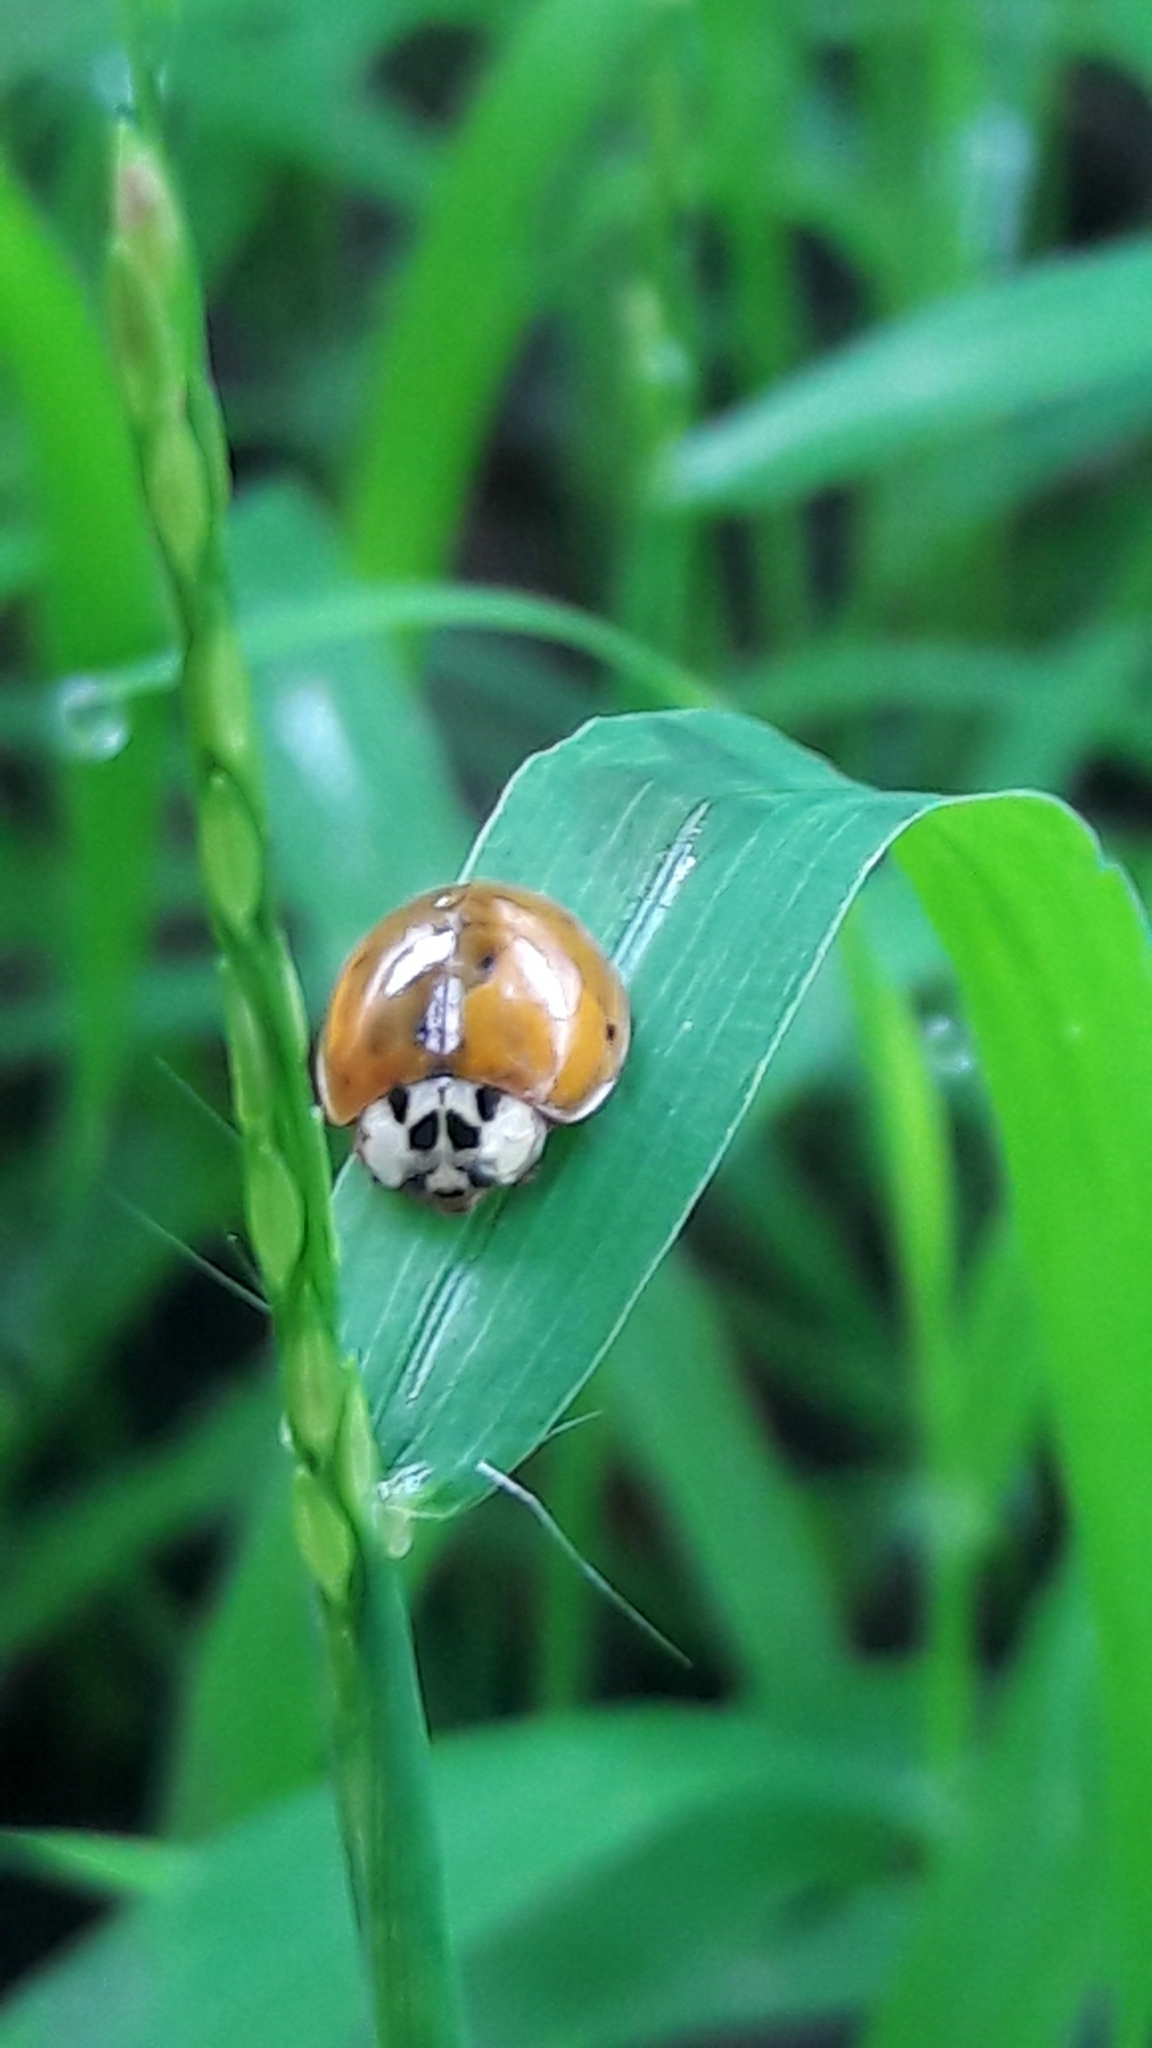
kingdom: Animalia
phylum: Arthropoda
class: Insecta
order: Coleoptera
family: Coccinellidae
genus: Harmonia
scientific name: Harmonia axyridis
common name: Harlequin ladybird
